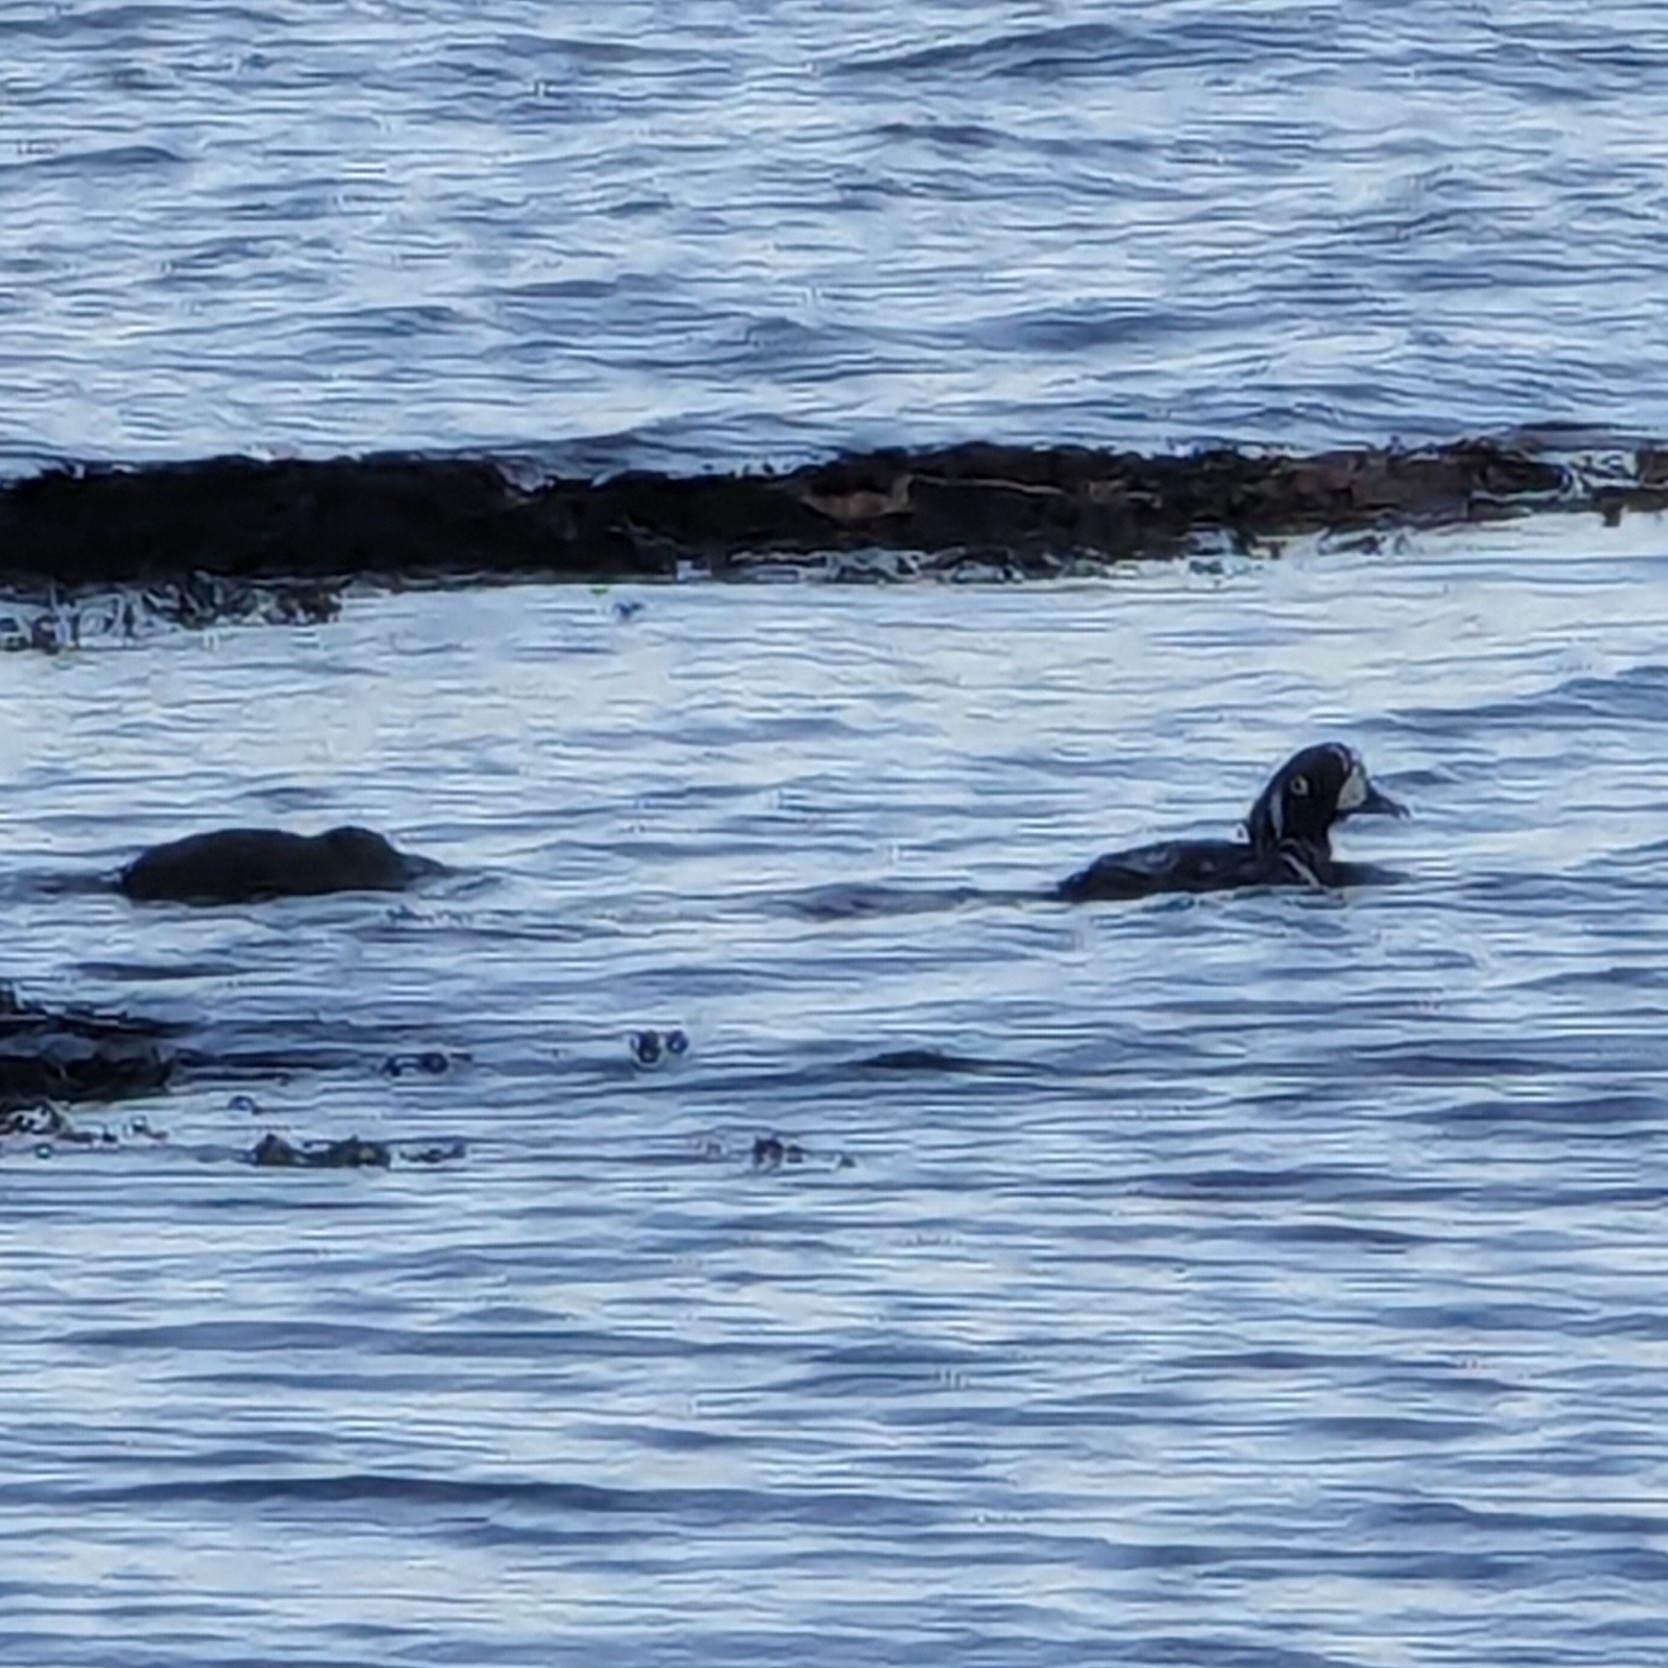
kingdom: Animalia
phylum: Chordata
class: Aves
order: Anseriformes
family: Anatidae
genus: Histrionicus
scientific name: Histrionicus histrionicus
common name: Harlequin duck
